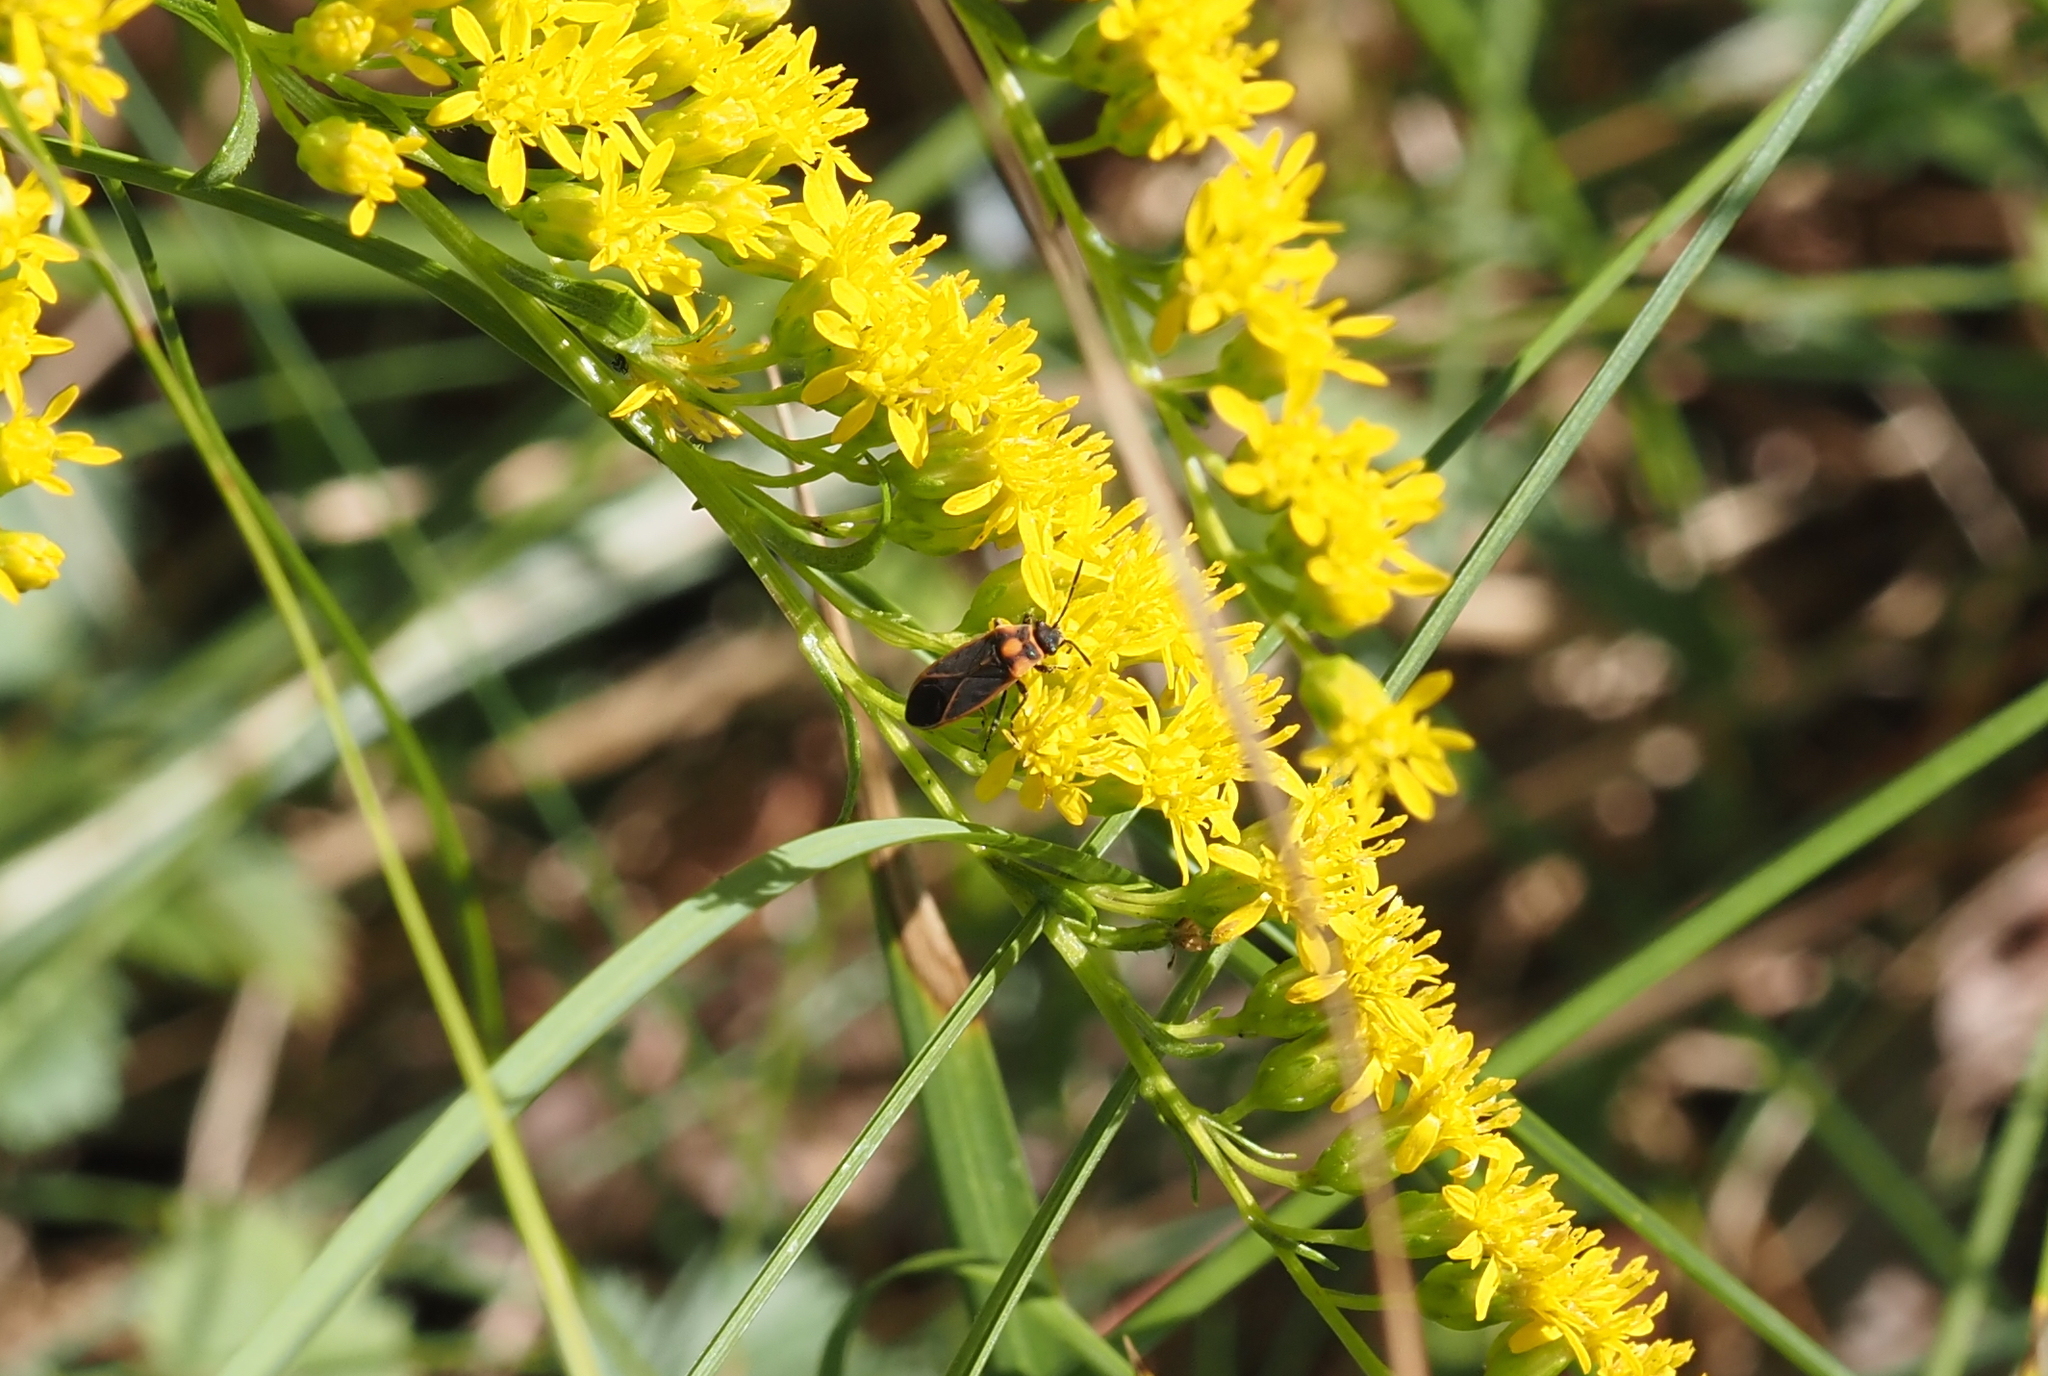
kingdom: Animalia
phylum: Arthropoda
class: Insecta
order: Hemiptera
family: Lygaeidae
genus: Ochrimnus
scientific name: Ochrimnus lineoloides
